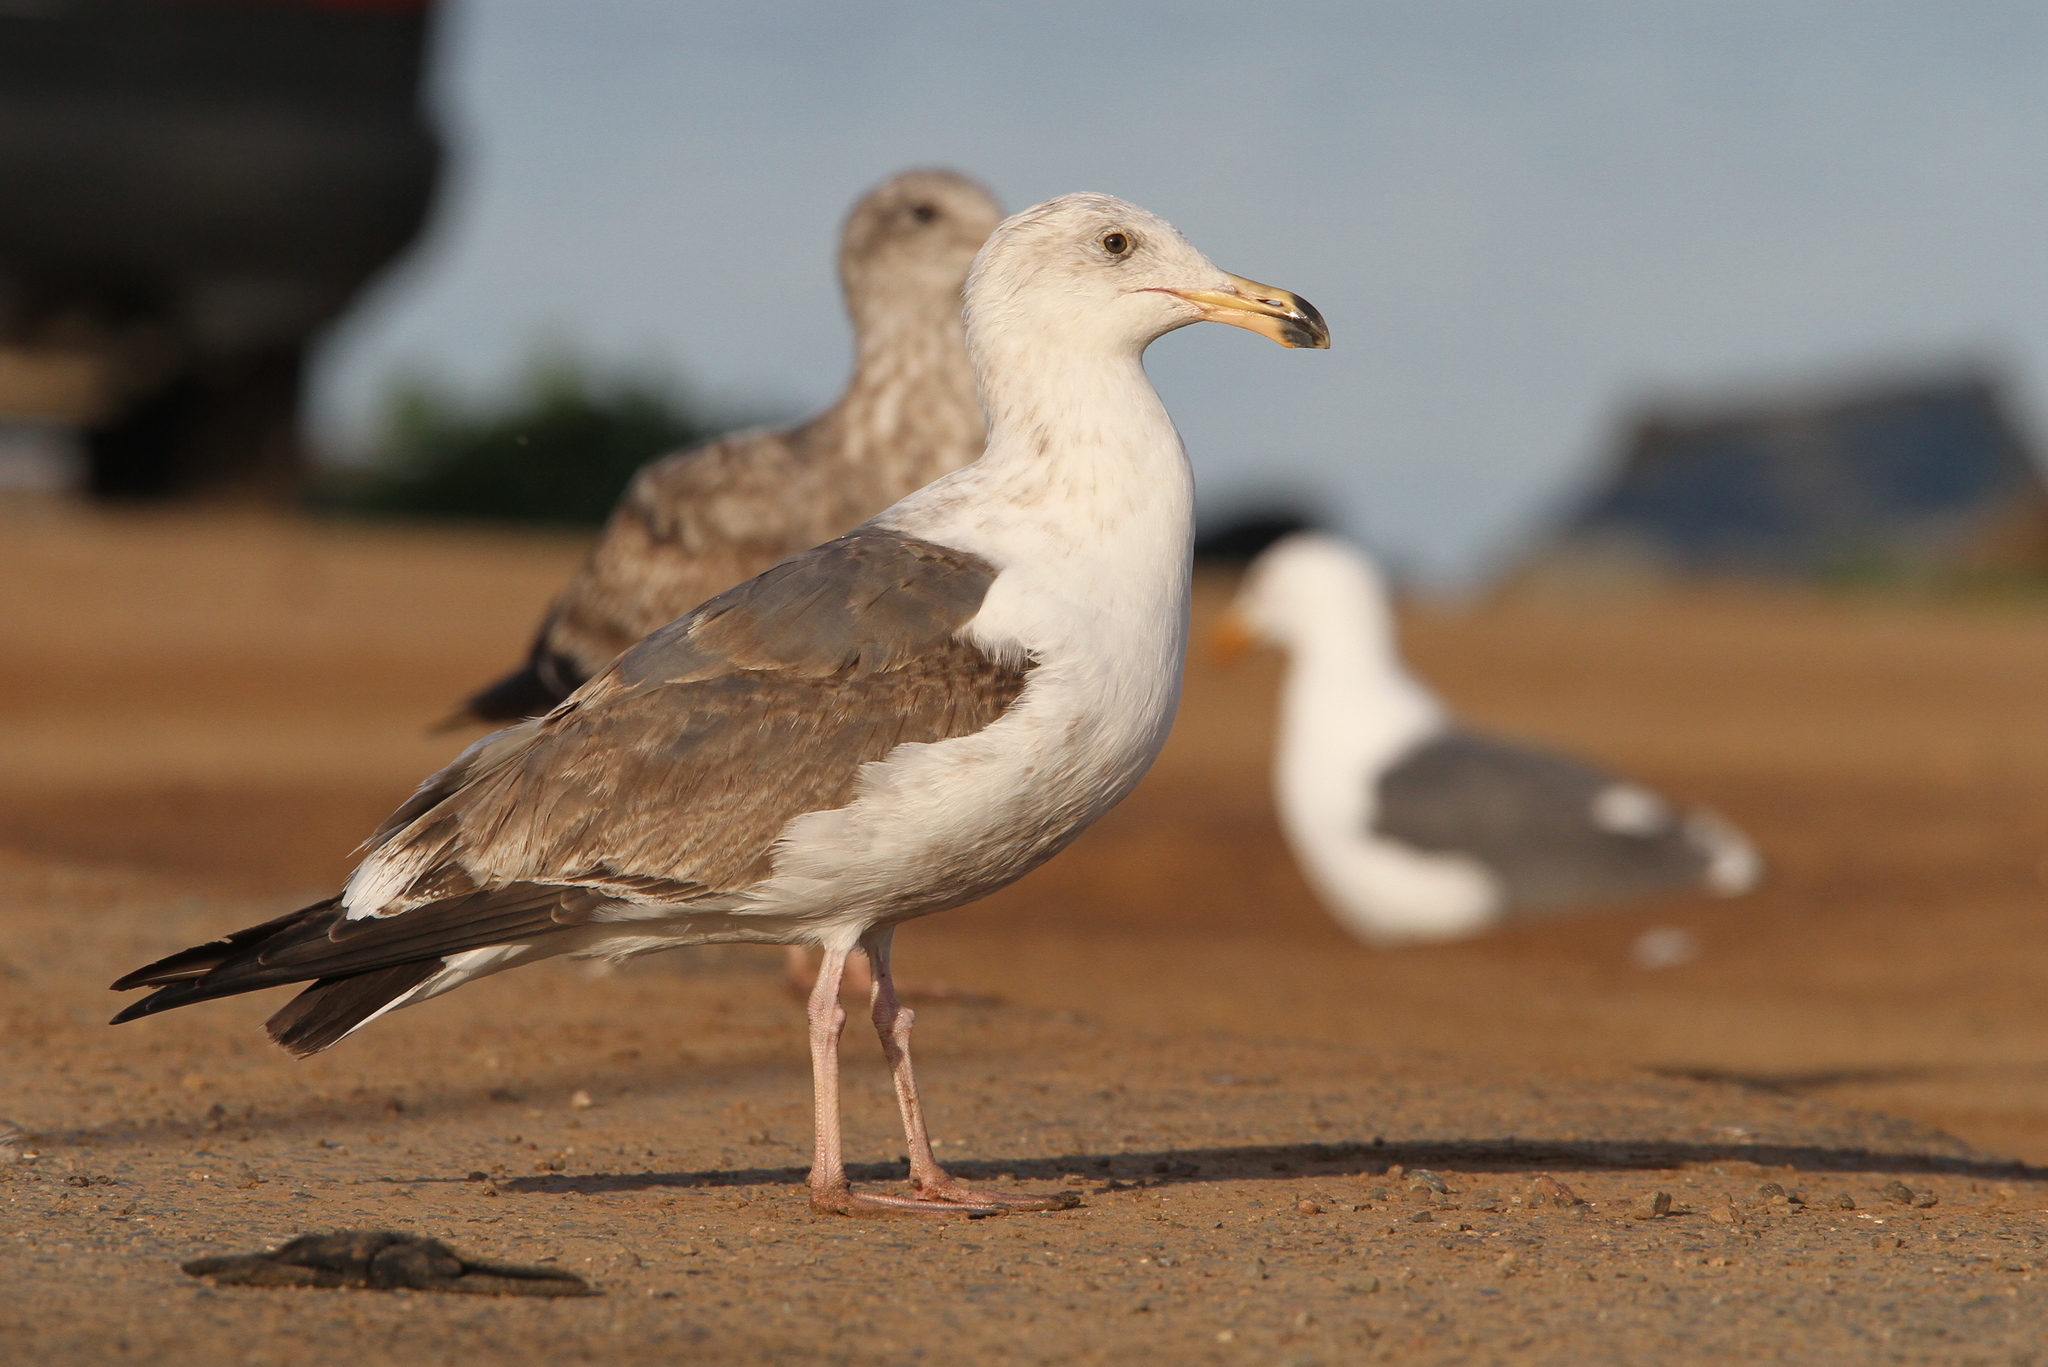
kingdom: Animalia
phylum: Chordata
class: Aves
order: Charadriiformes
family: Laridae
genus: Larus
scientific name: Larus occidentalis
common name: Western gull
